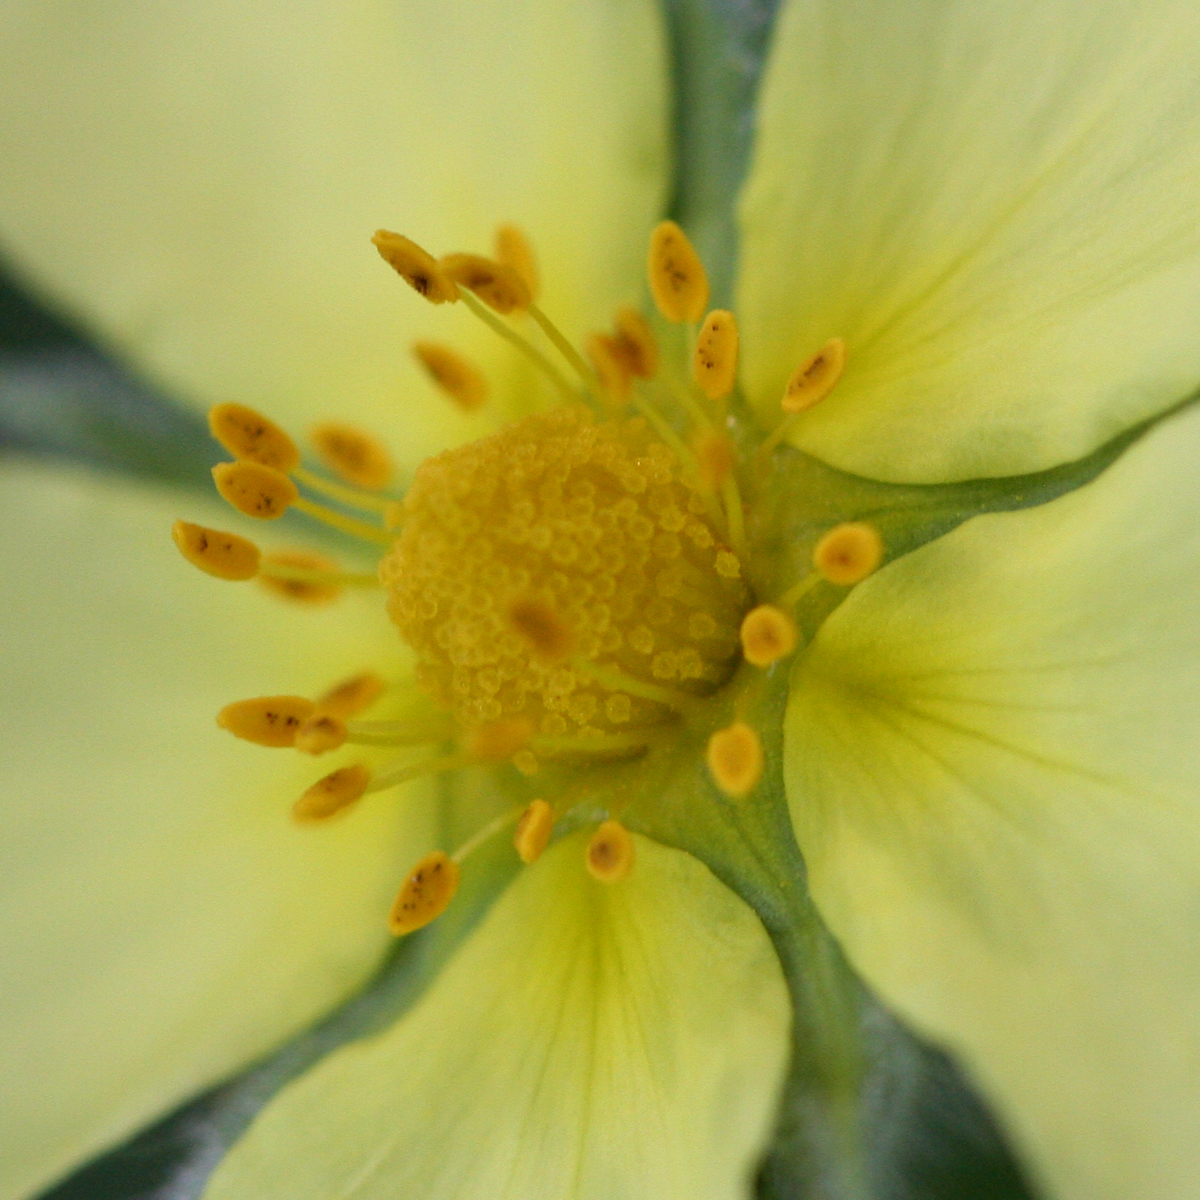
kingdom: Plantae
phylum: Tracheophyta
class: Magnoliopsida
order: Rosales
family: Rosaceae
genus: Potentilla
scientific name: Potentilla recta
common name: Sulphur cinquefoil
